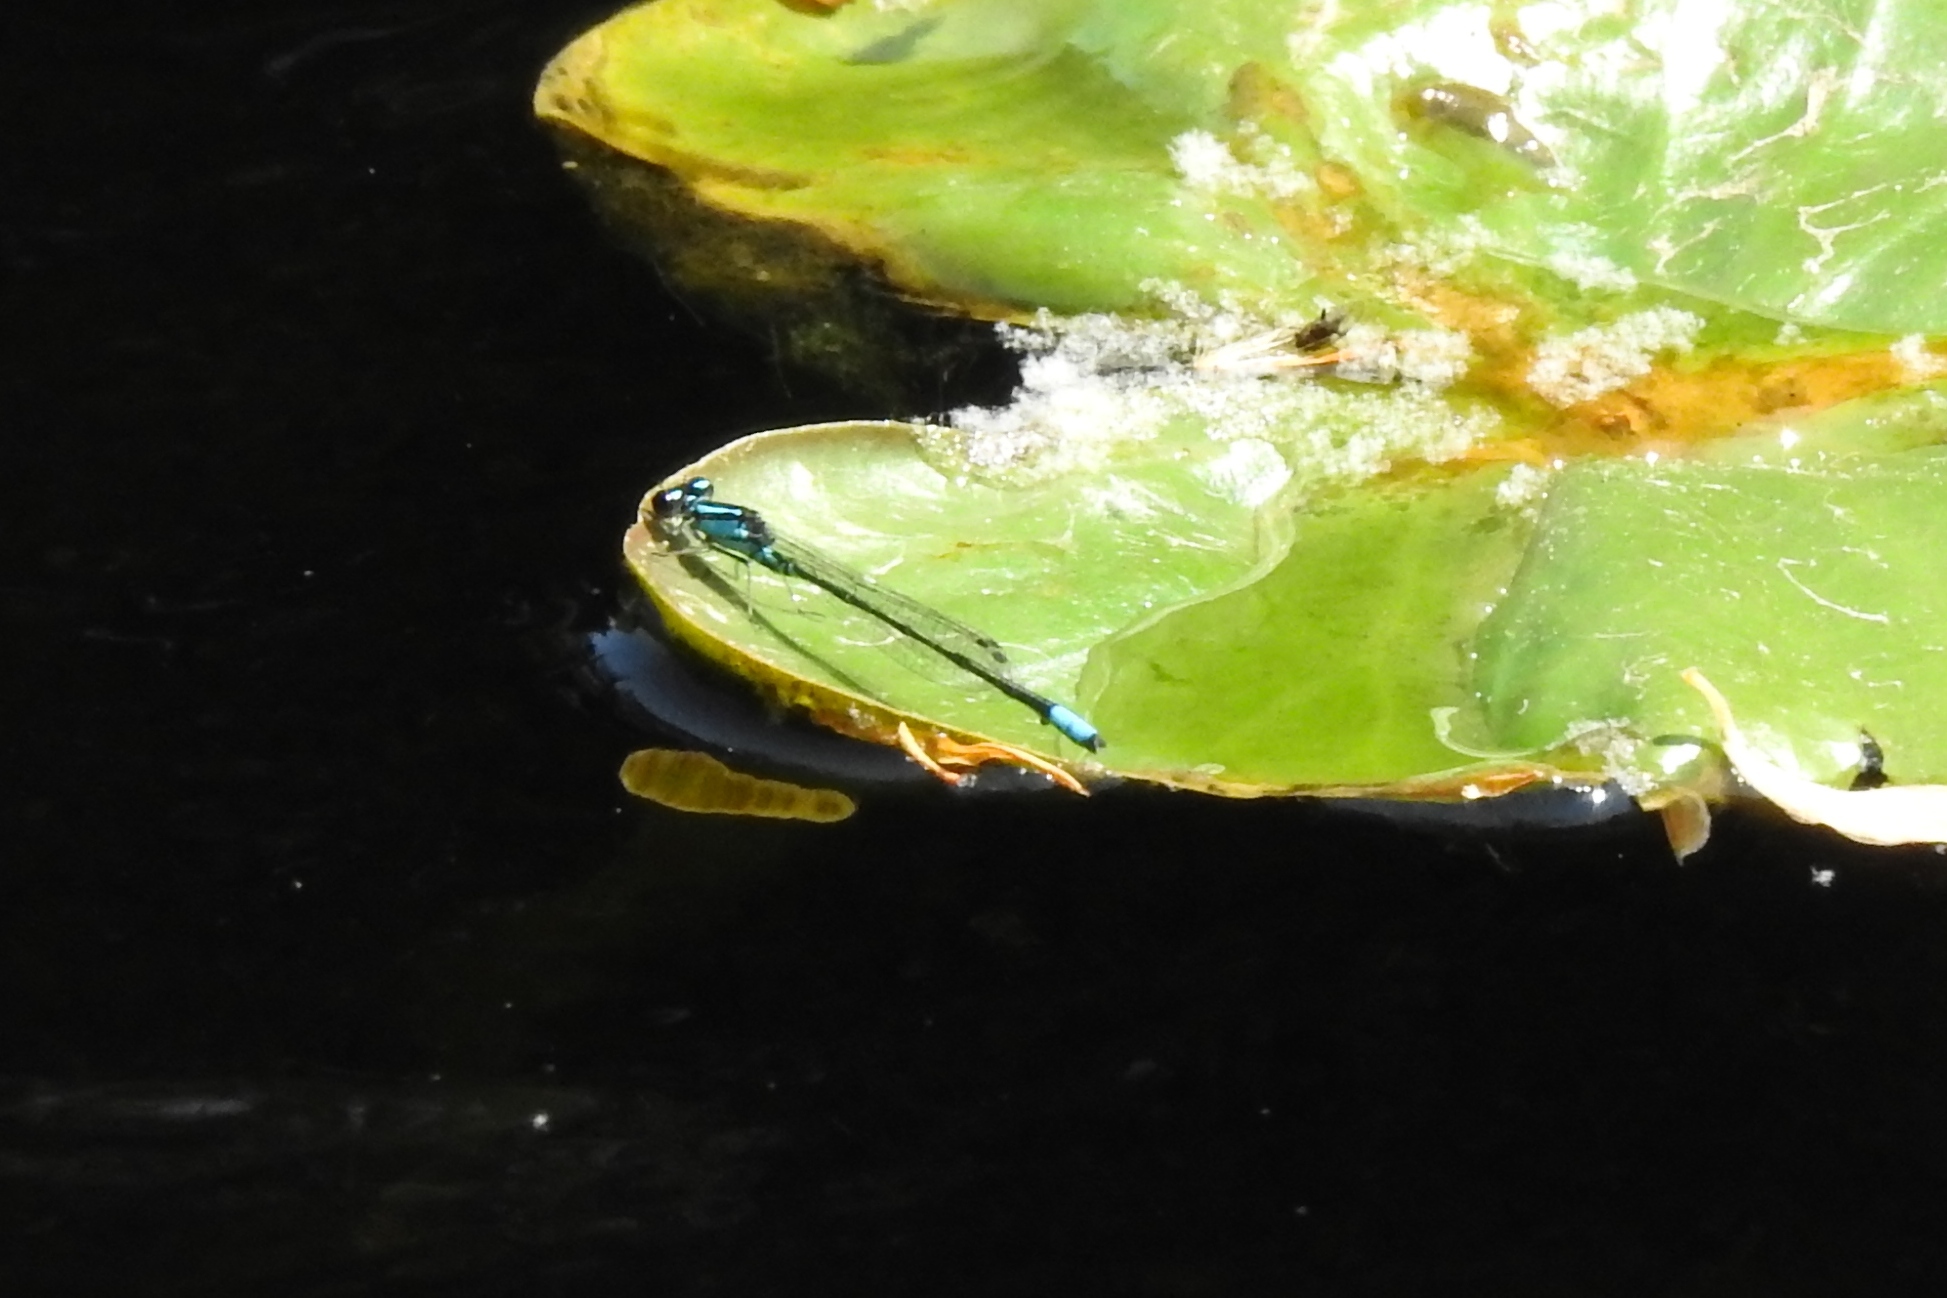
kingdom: Animalia
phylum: Arthropoda
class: Insecta
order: Odonata
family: Coenagrionidae
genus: Enallagma
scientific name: Enallagma geminatum
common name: Skimming bluet
